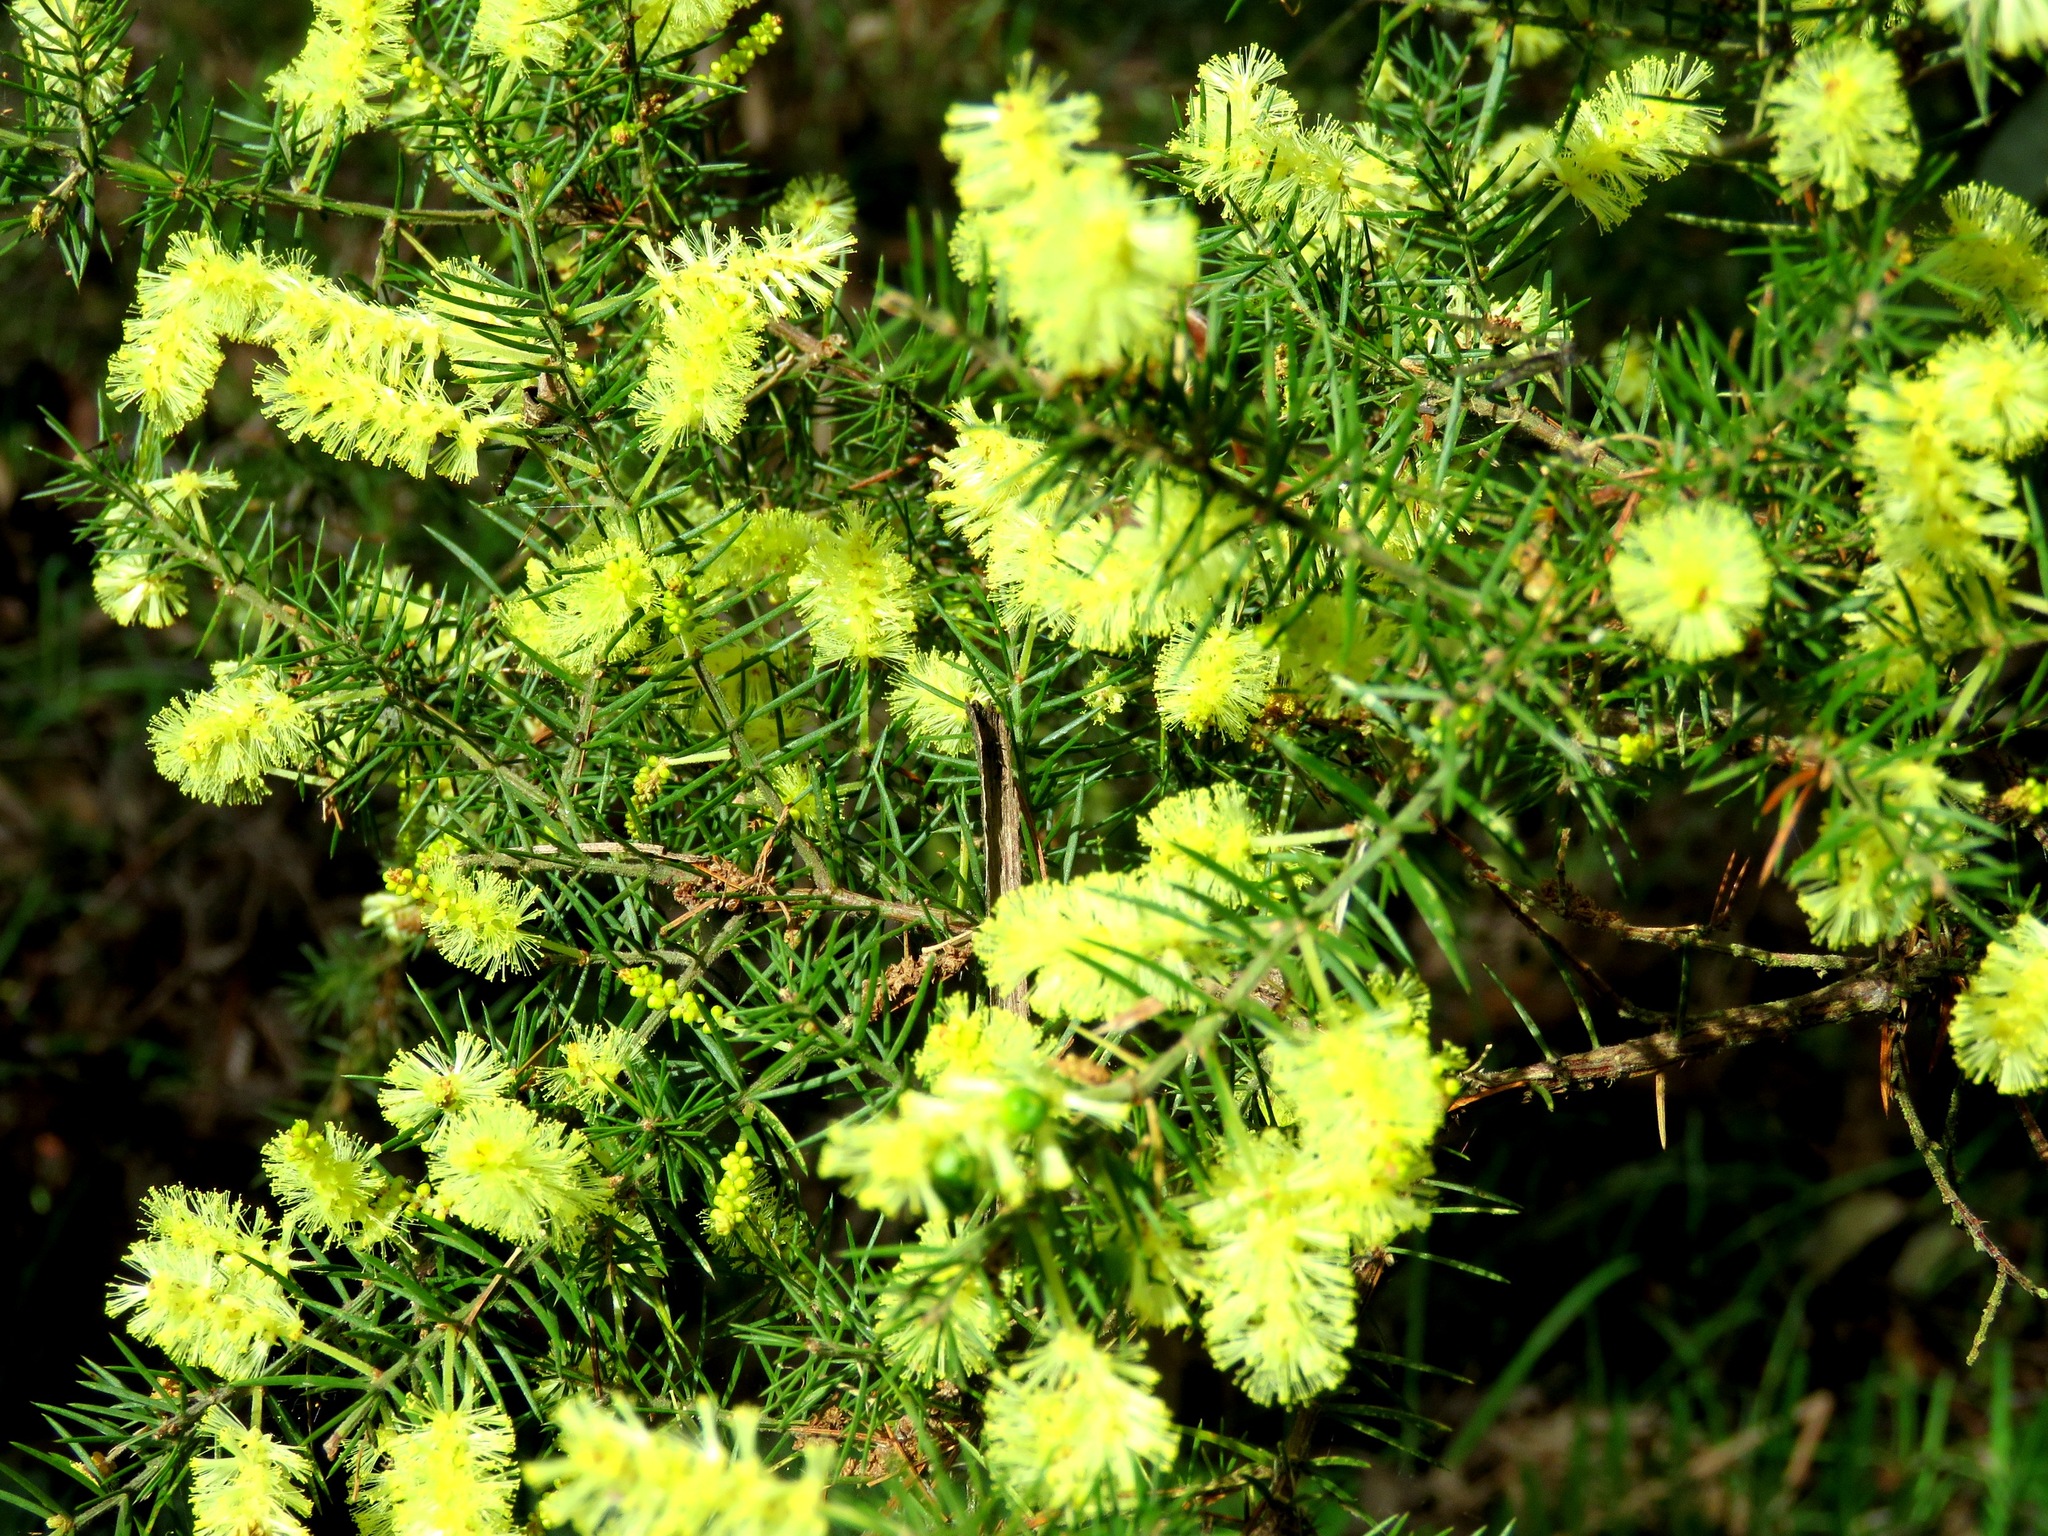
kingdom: Plantae
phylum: Tracheophyta
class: Magnoliopsida
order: Fabales
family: Fabaceae
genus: Acacia
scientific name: Acacia verticillata
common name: Prickly moses
